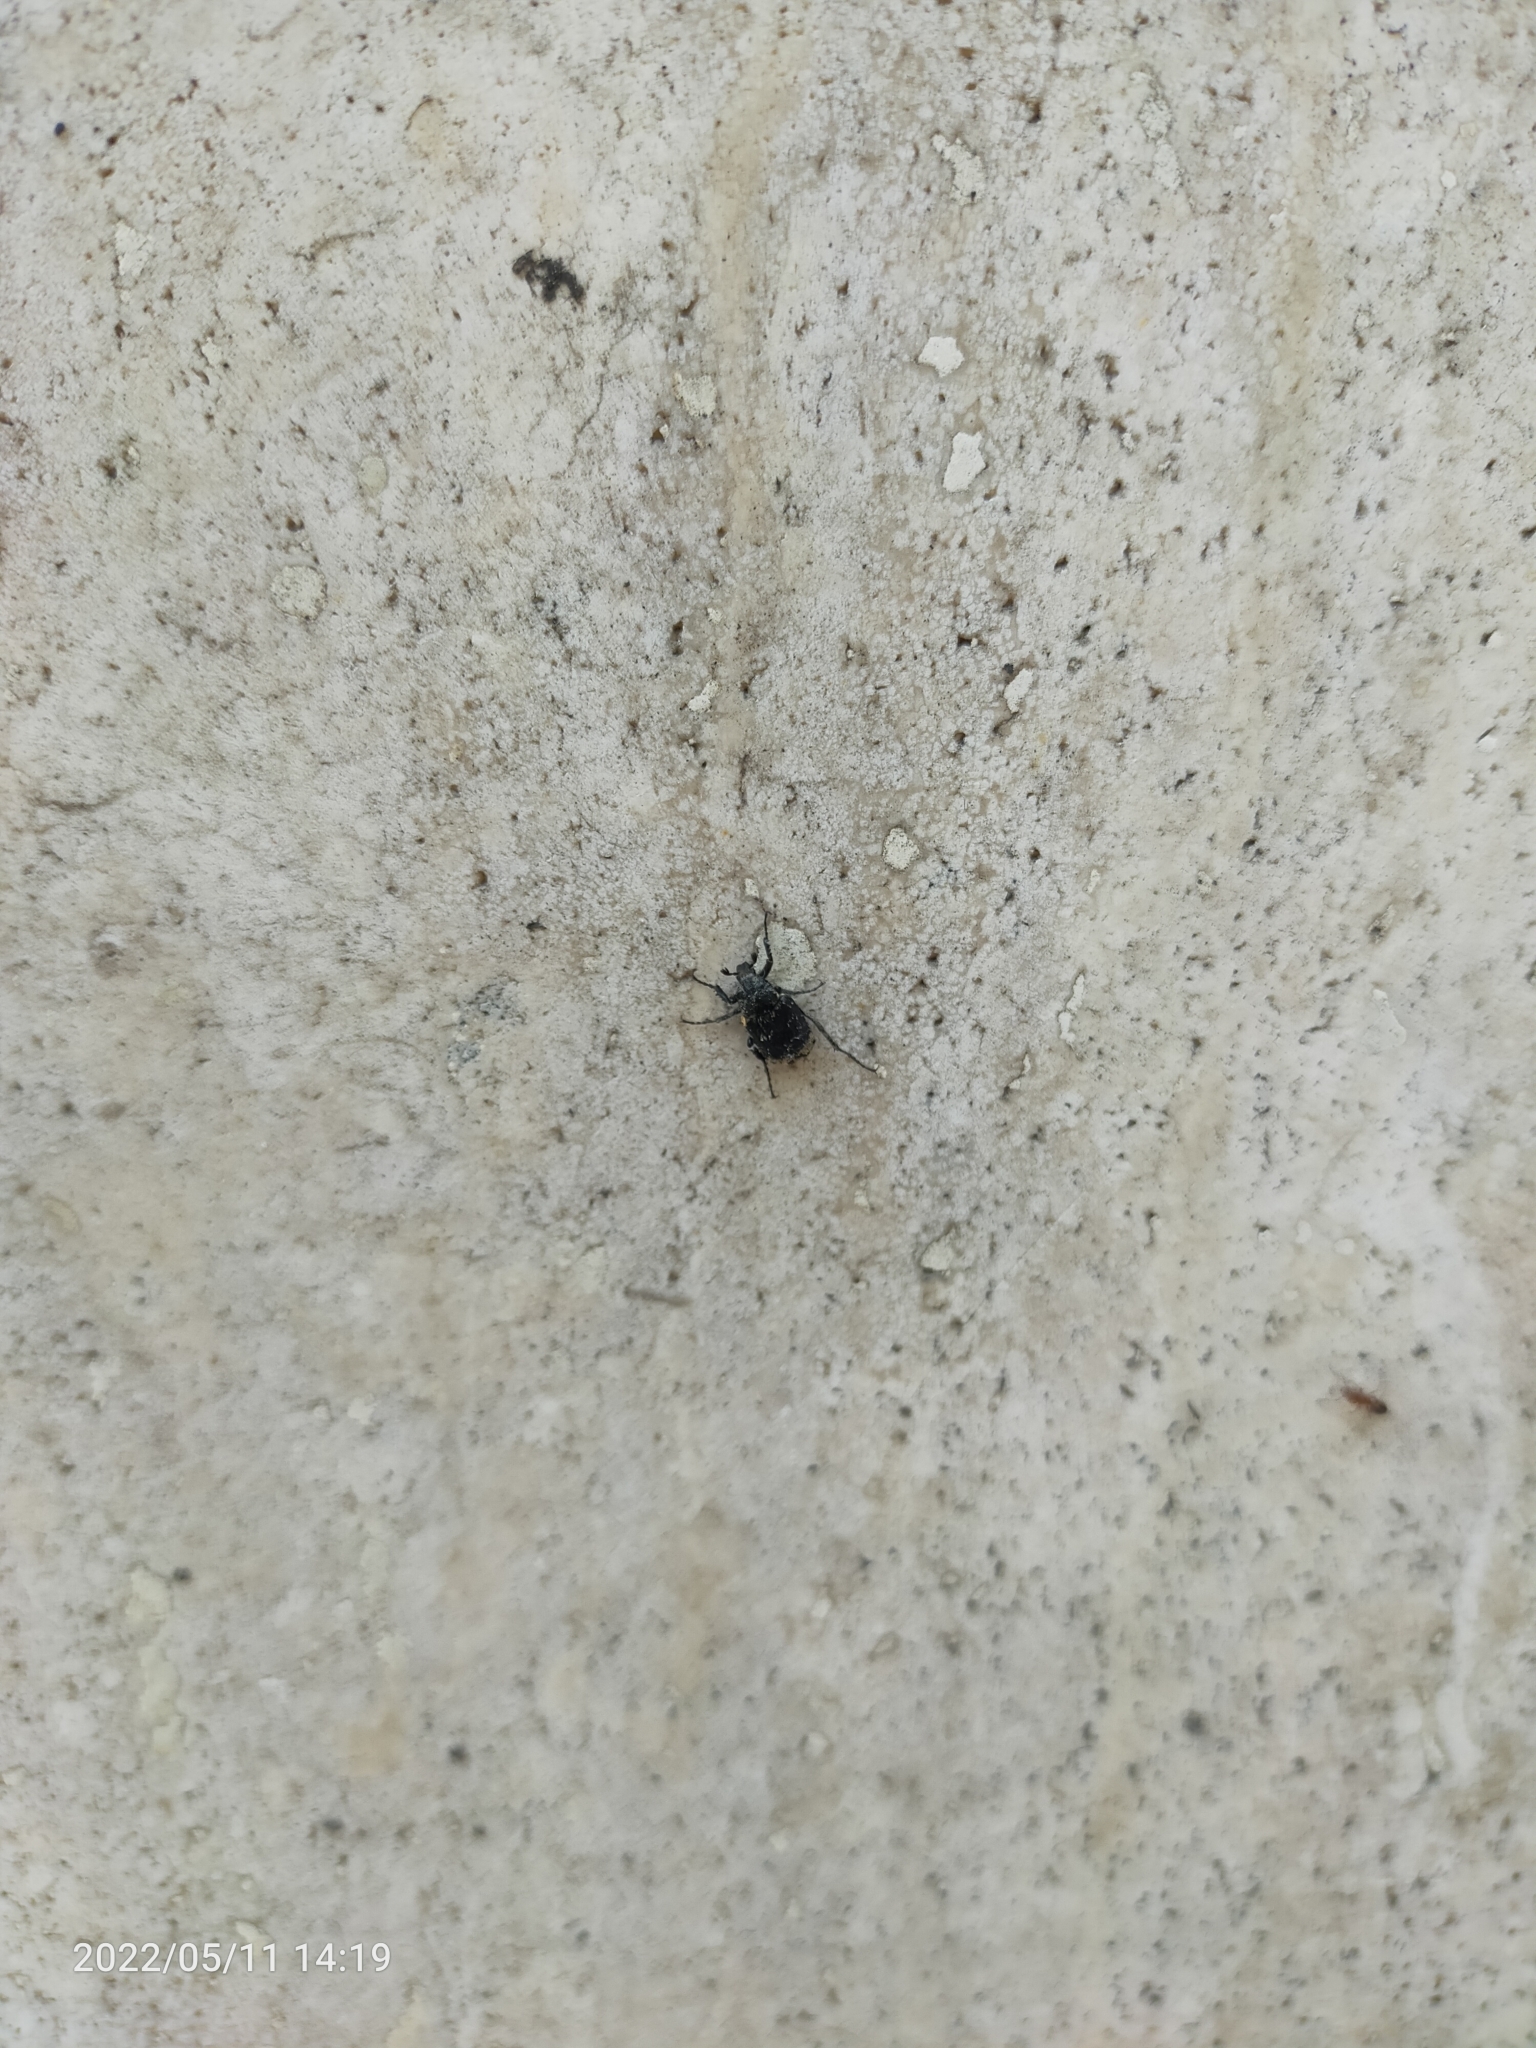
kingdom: Animalia
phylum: Arthropoda
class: Insecta
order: Coleoptera
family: Scarabaeidae
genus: Valgus
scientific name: Valgus hemipterus
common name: Bug flower chafer
